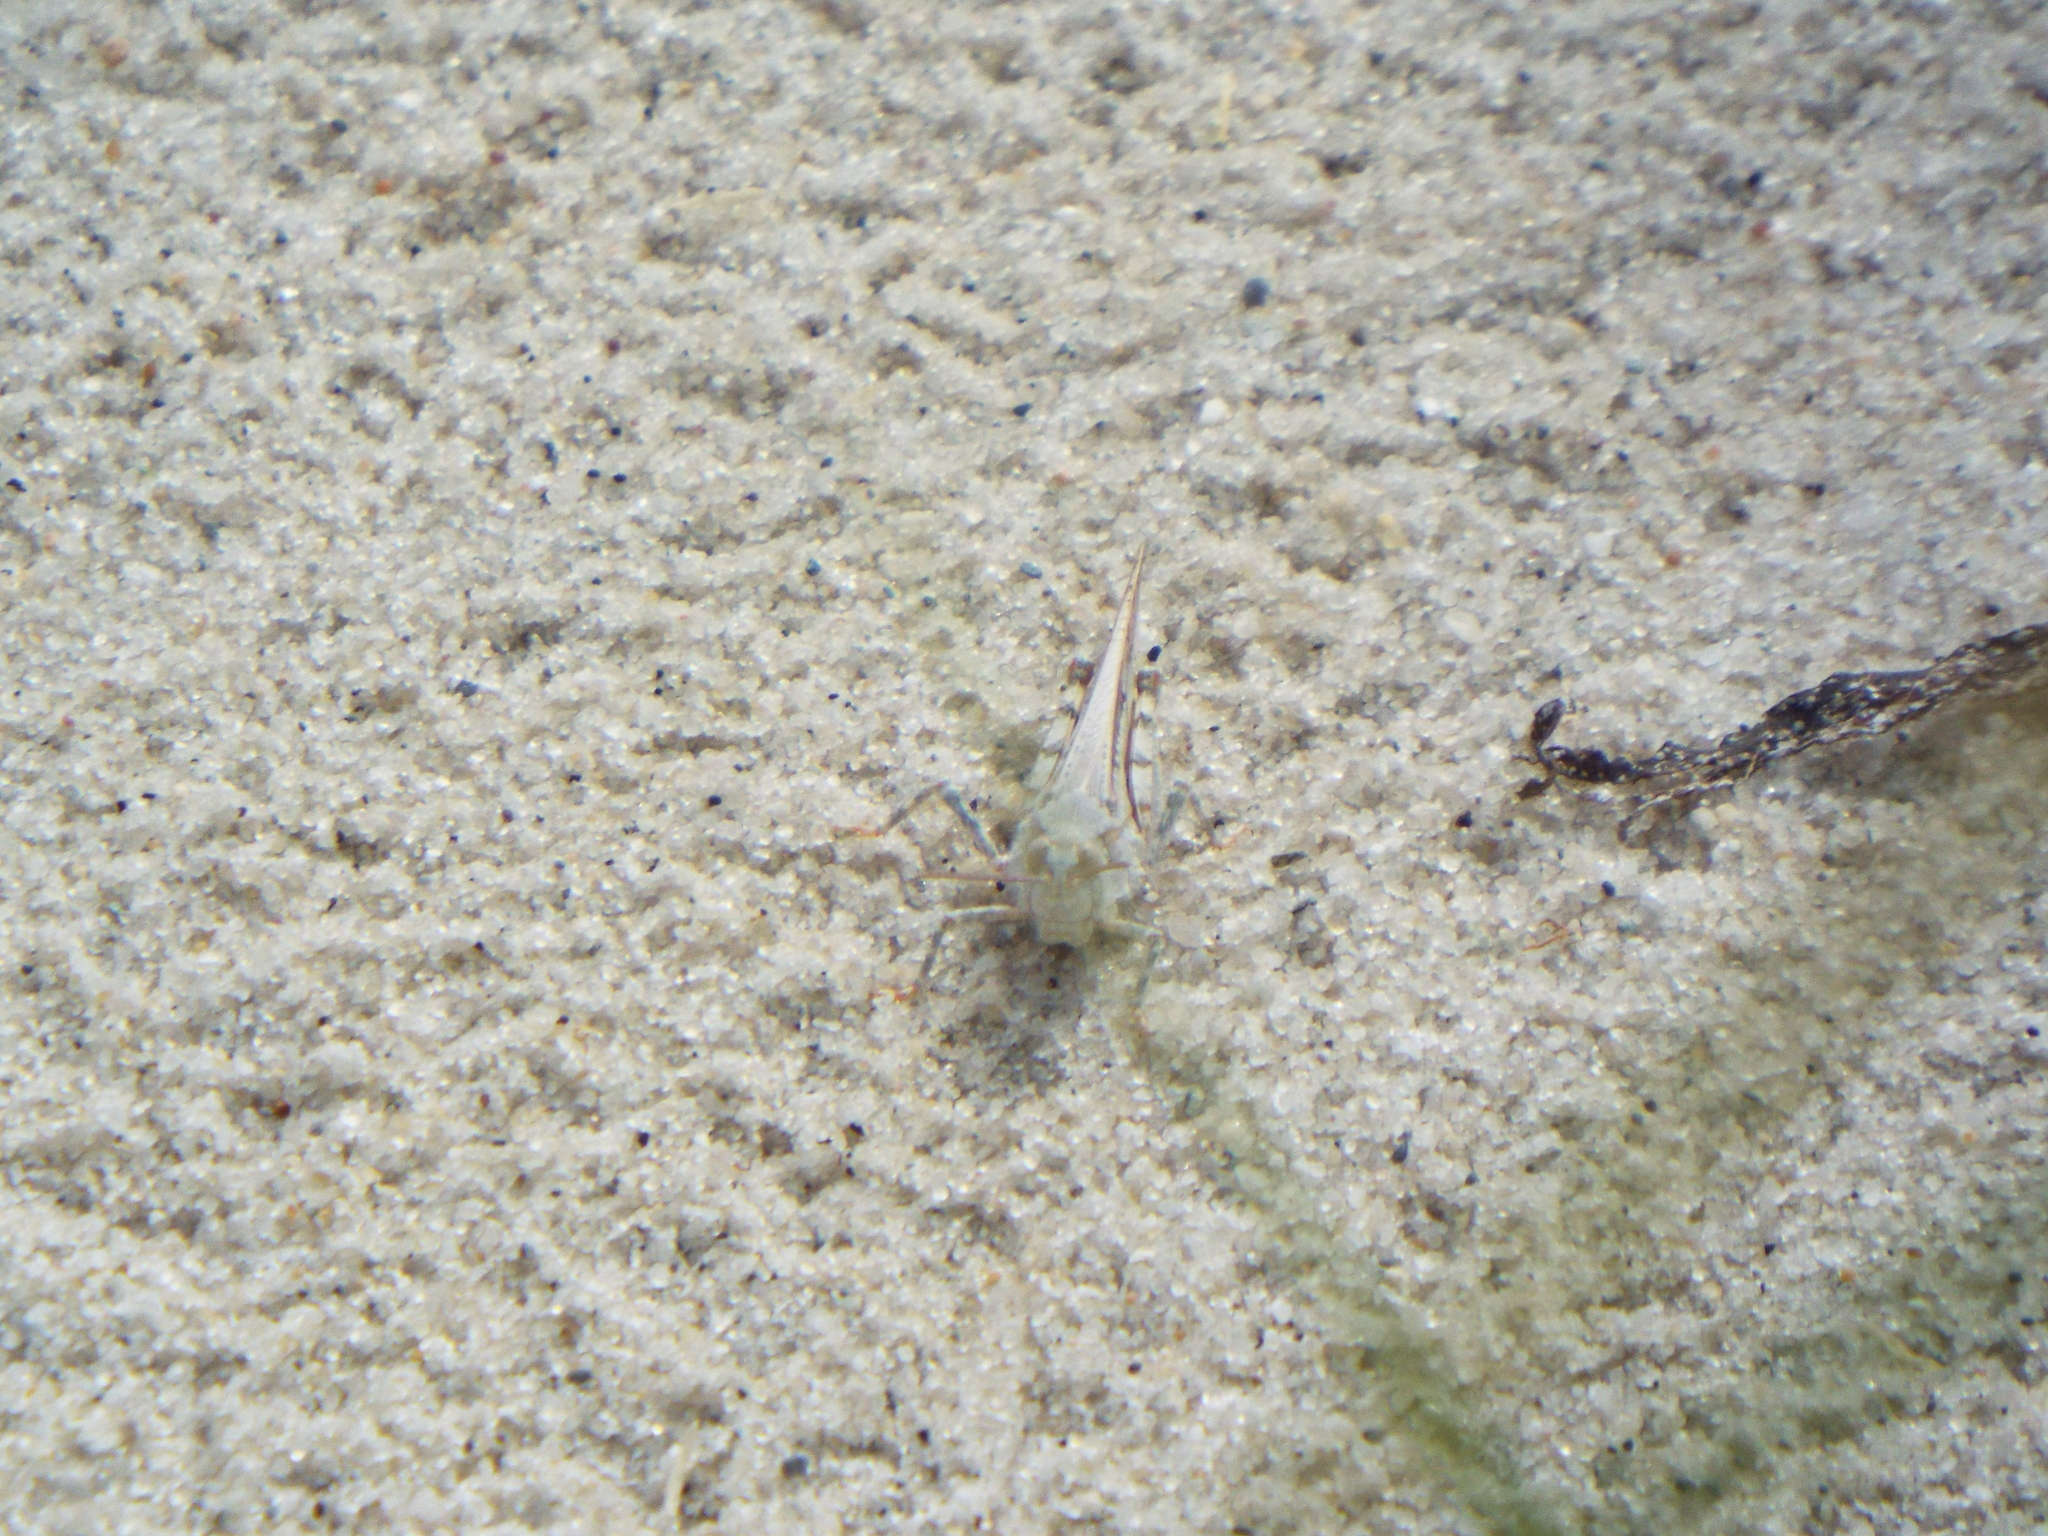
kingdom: Animalia
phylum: Arthropoda
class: Insecta
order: Orthoptera
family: Acrididae
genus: Trimerotropis
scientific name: Trimerotropis maritima
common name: Seaside locust
